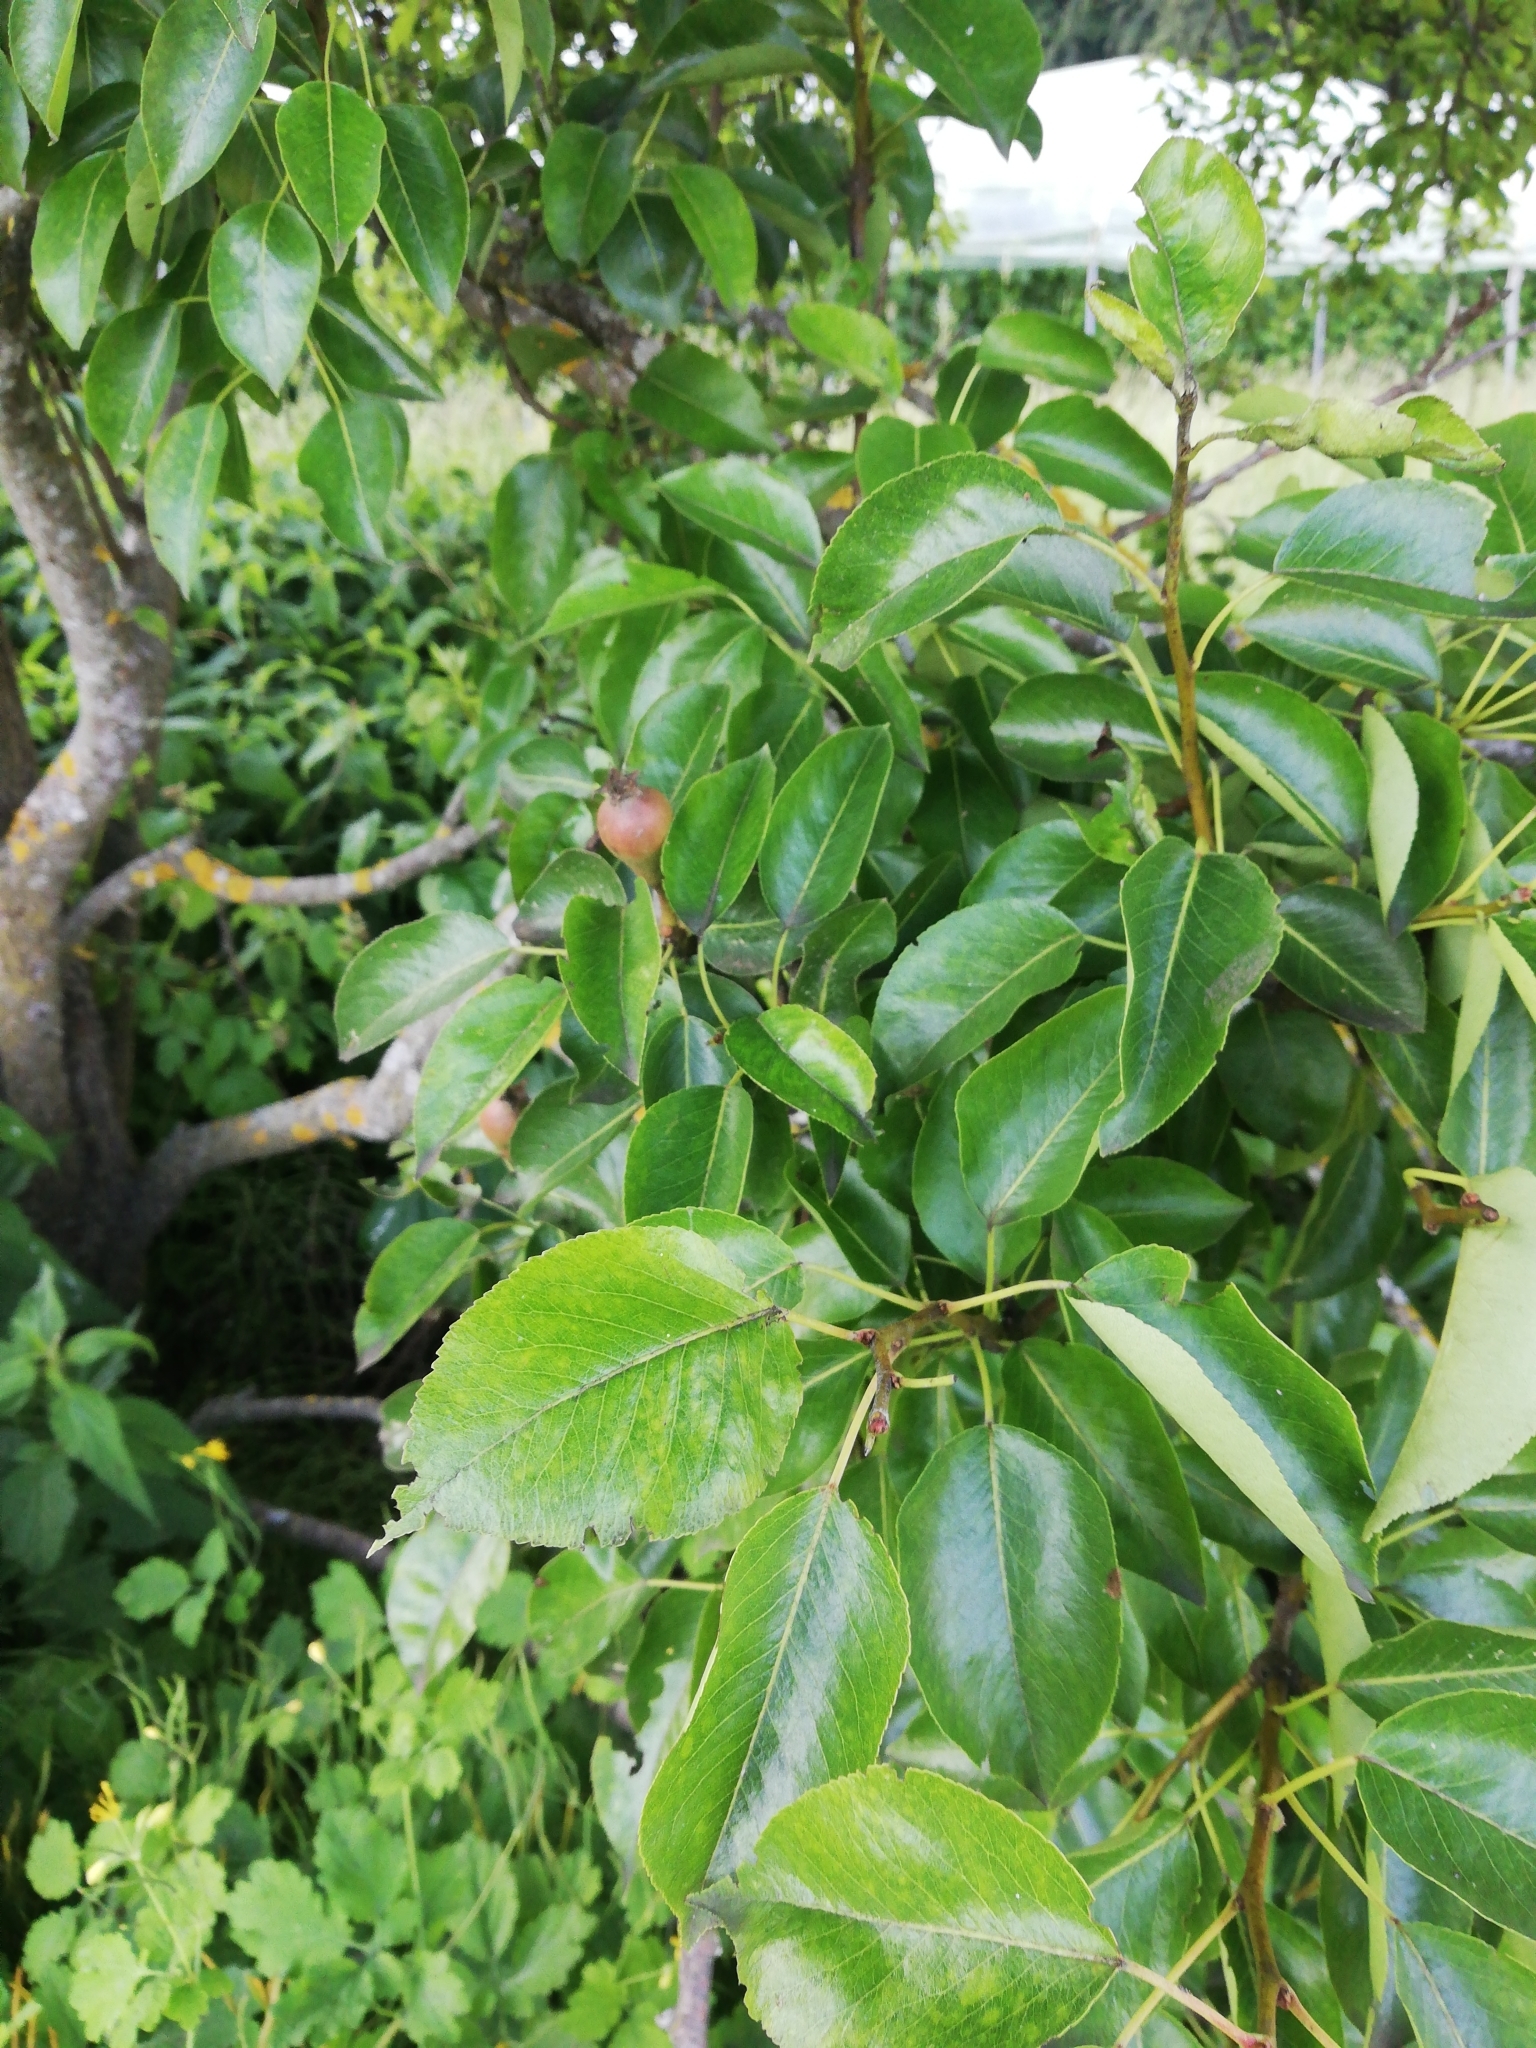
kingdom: Plantae
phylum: Tracheophyta
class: Magnoliopsida
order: Rosales
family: Rosaceae
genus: Pyrus
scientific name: Pyrus communis
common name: Pear
